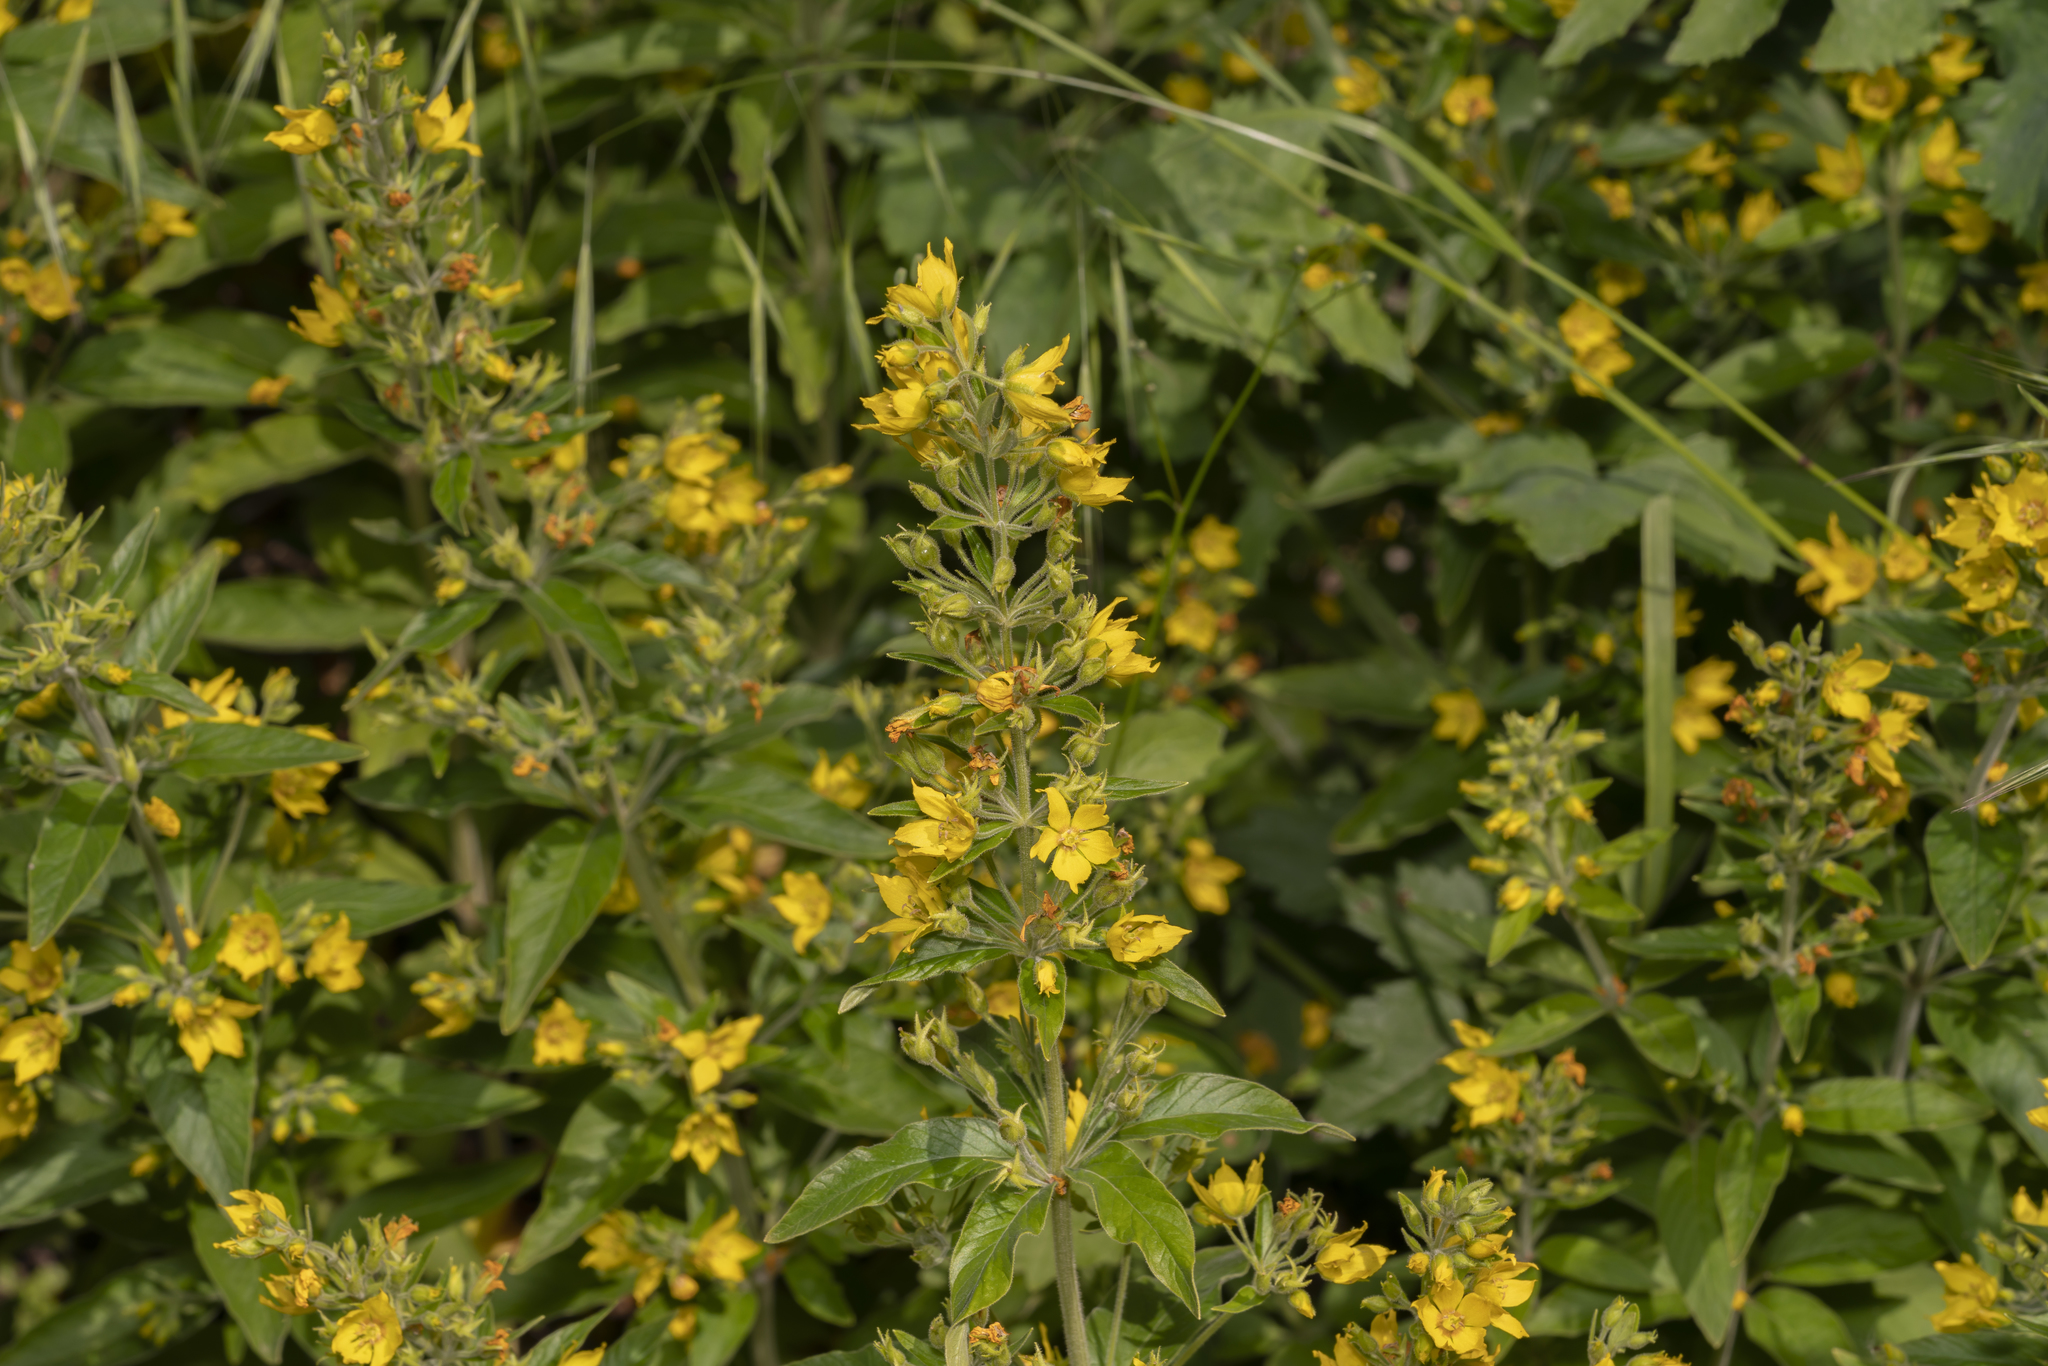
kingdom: Plantae
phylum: Tracheophyta
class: Magnoliopsida
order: Ericales
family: Primulaceae
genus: Lysimachia
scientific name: Lysimachia punctata
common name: Dotted loosestrife
